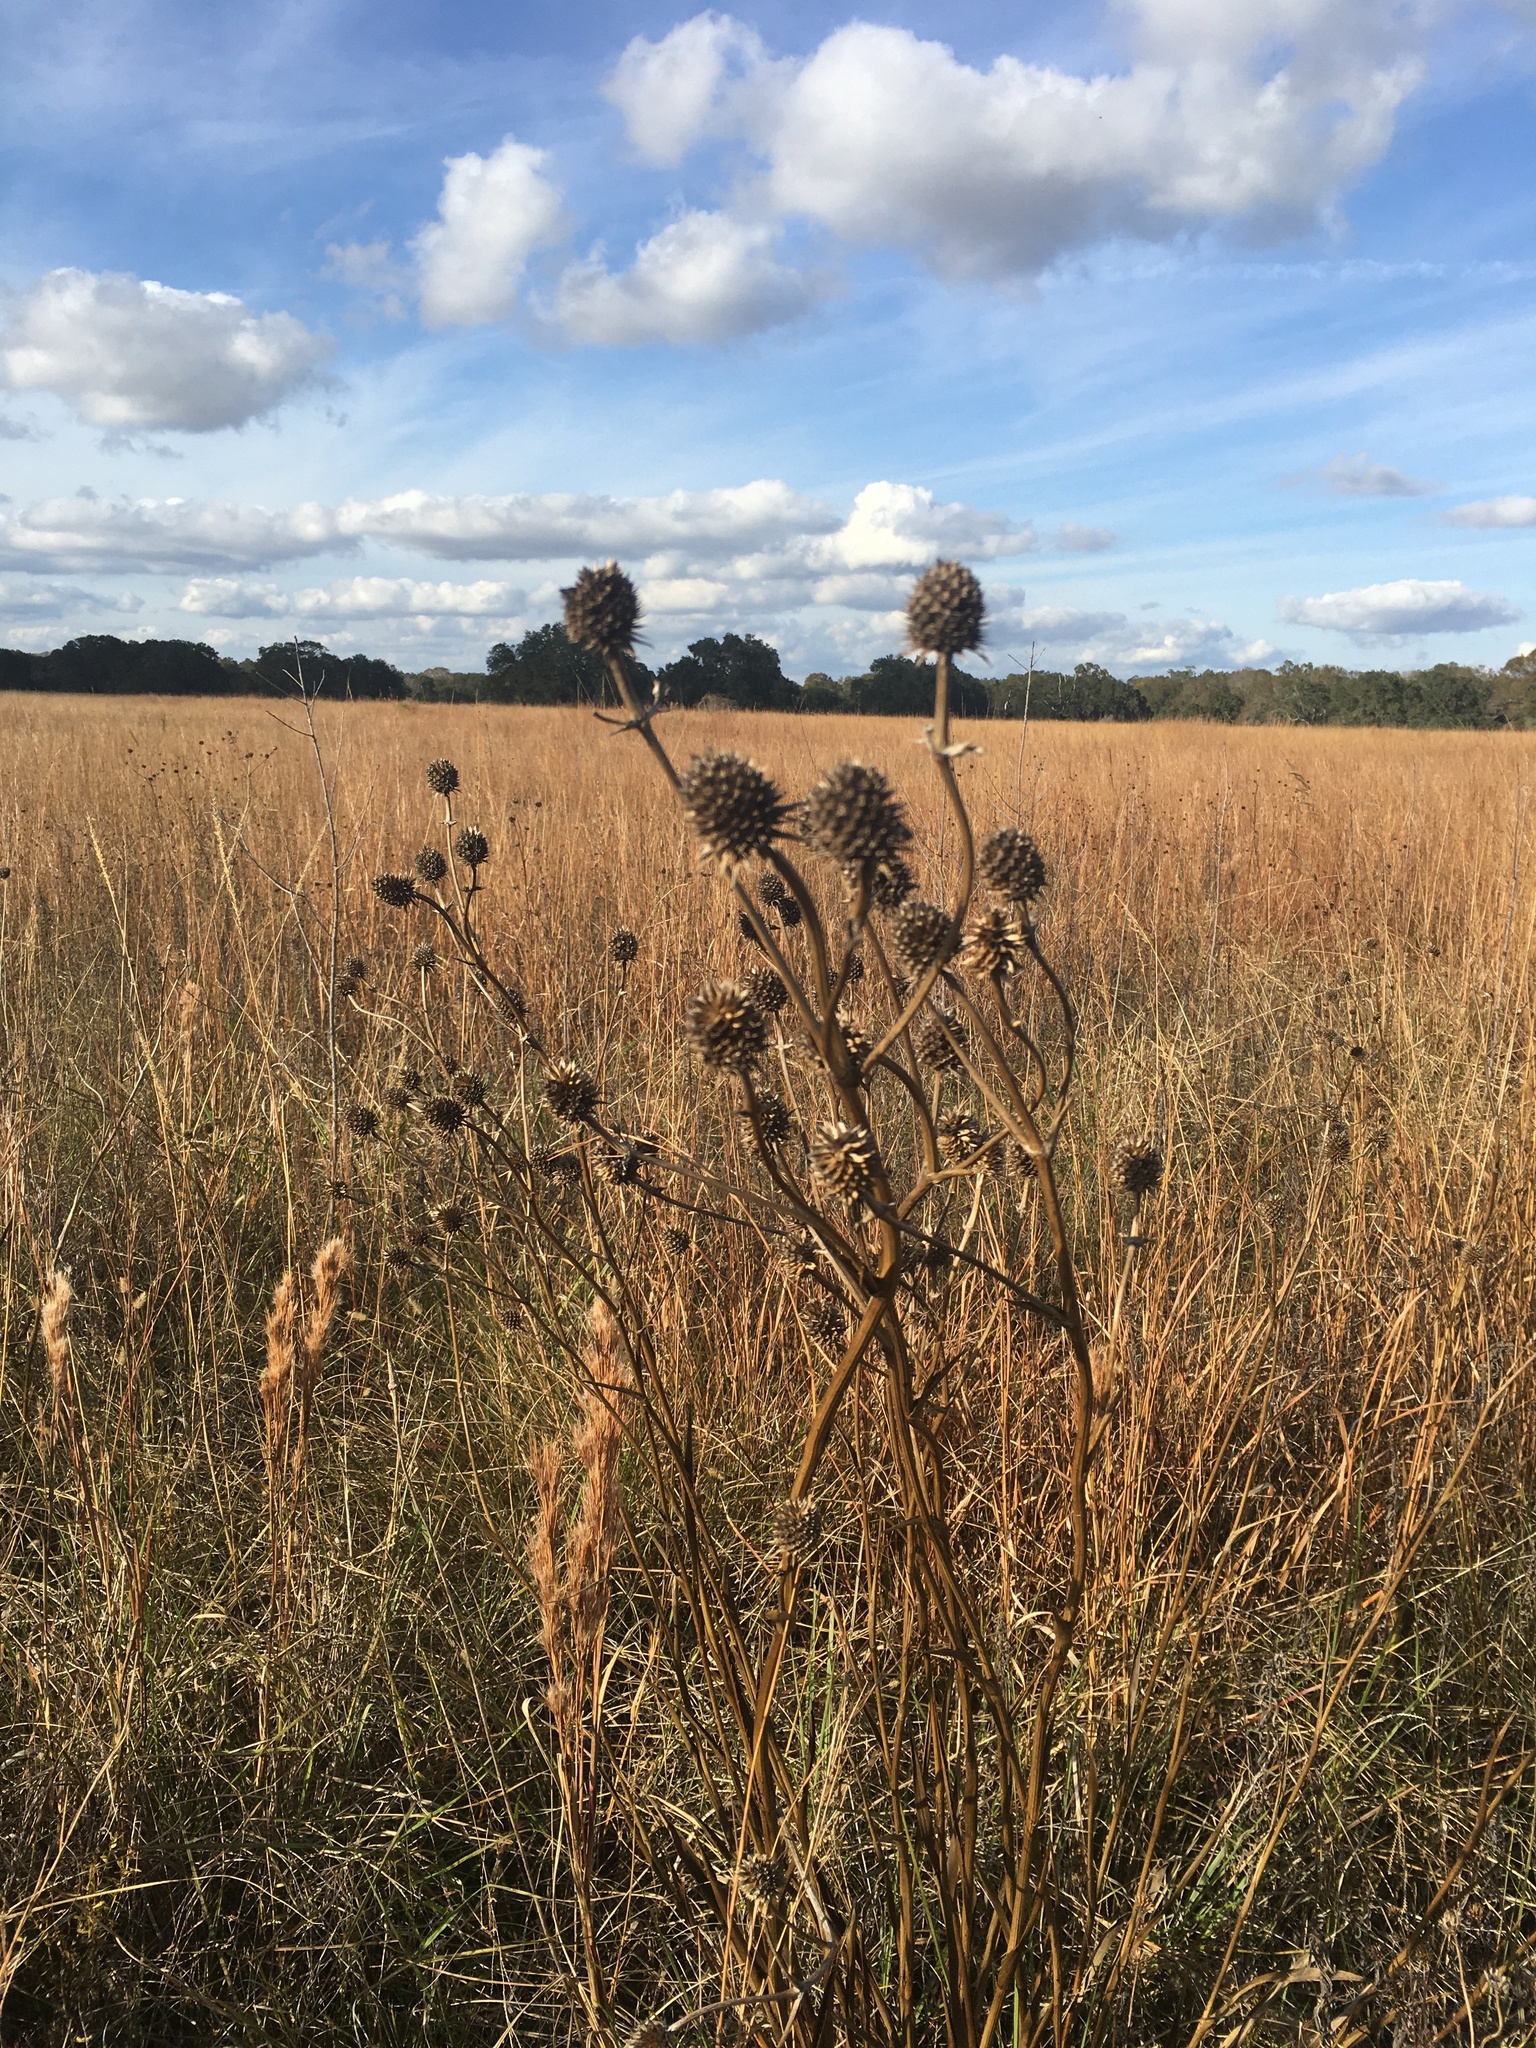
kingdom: Plantae
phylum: Tracheophyta
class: Magnoliopsida
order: Apiales
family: Apiaceae
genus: Eryngium
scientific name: Eryngium yuccifolium
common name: Button eryngo
